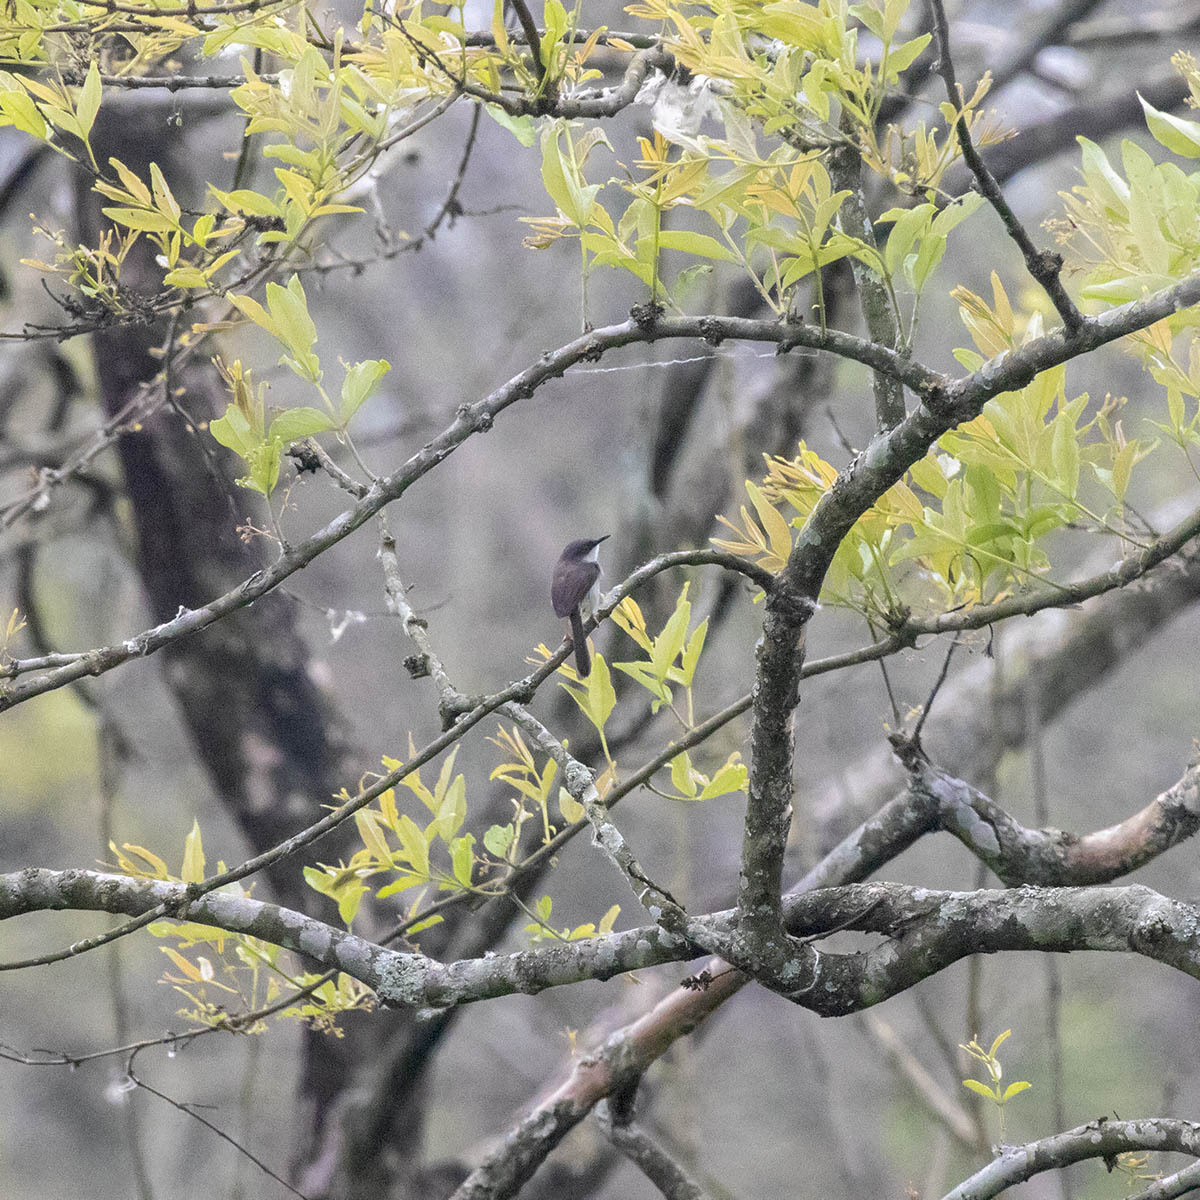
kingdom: Animalia
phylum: Chordata
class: Aves
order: Passeriformes
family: Cisticolidae
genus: Prinia
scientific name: Prinia hodgsonii
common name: Grey-breasted prinia
